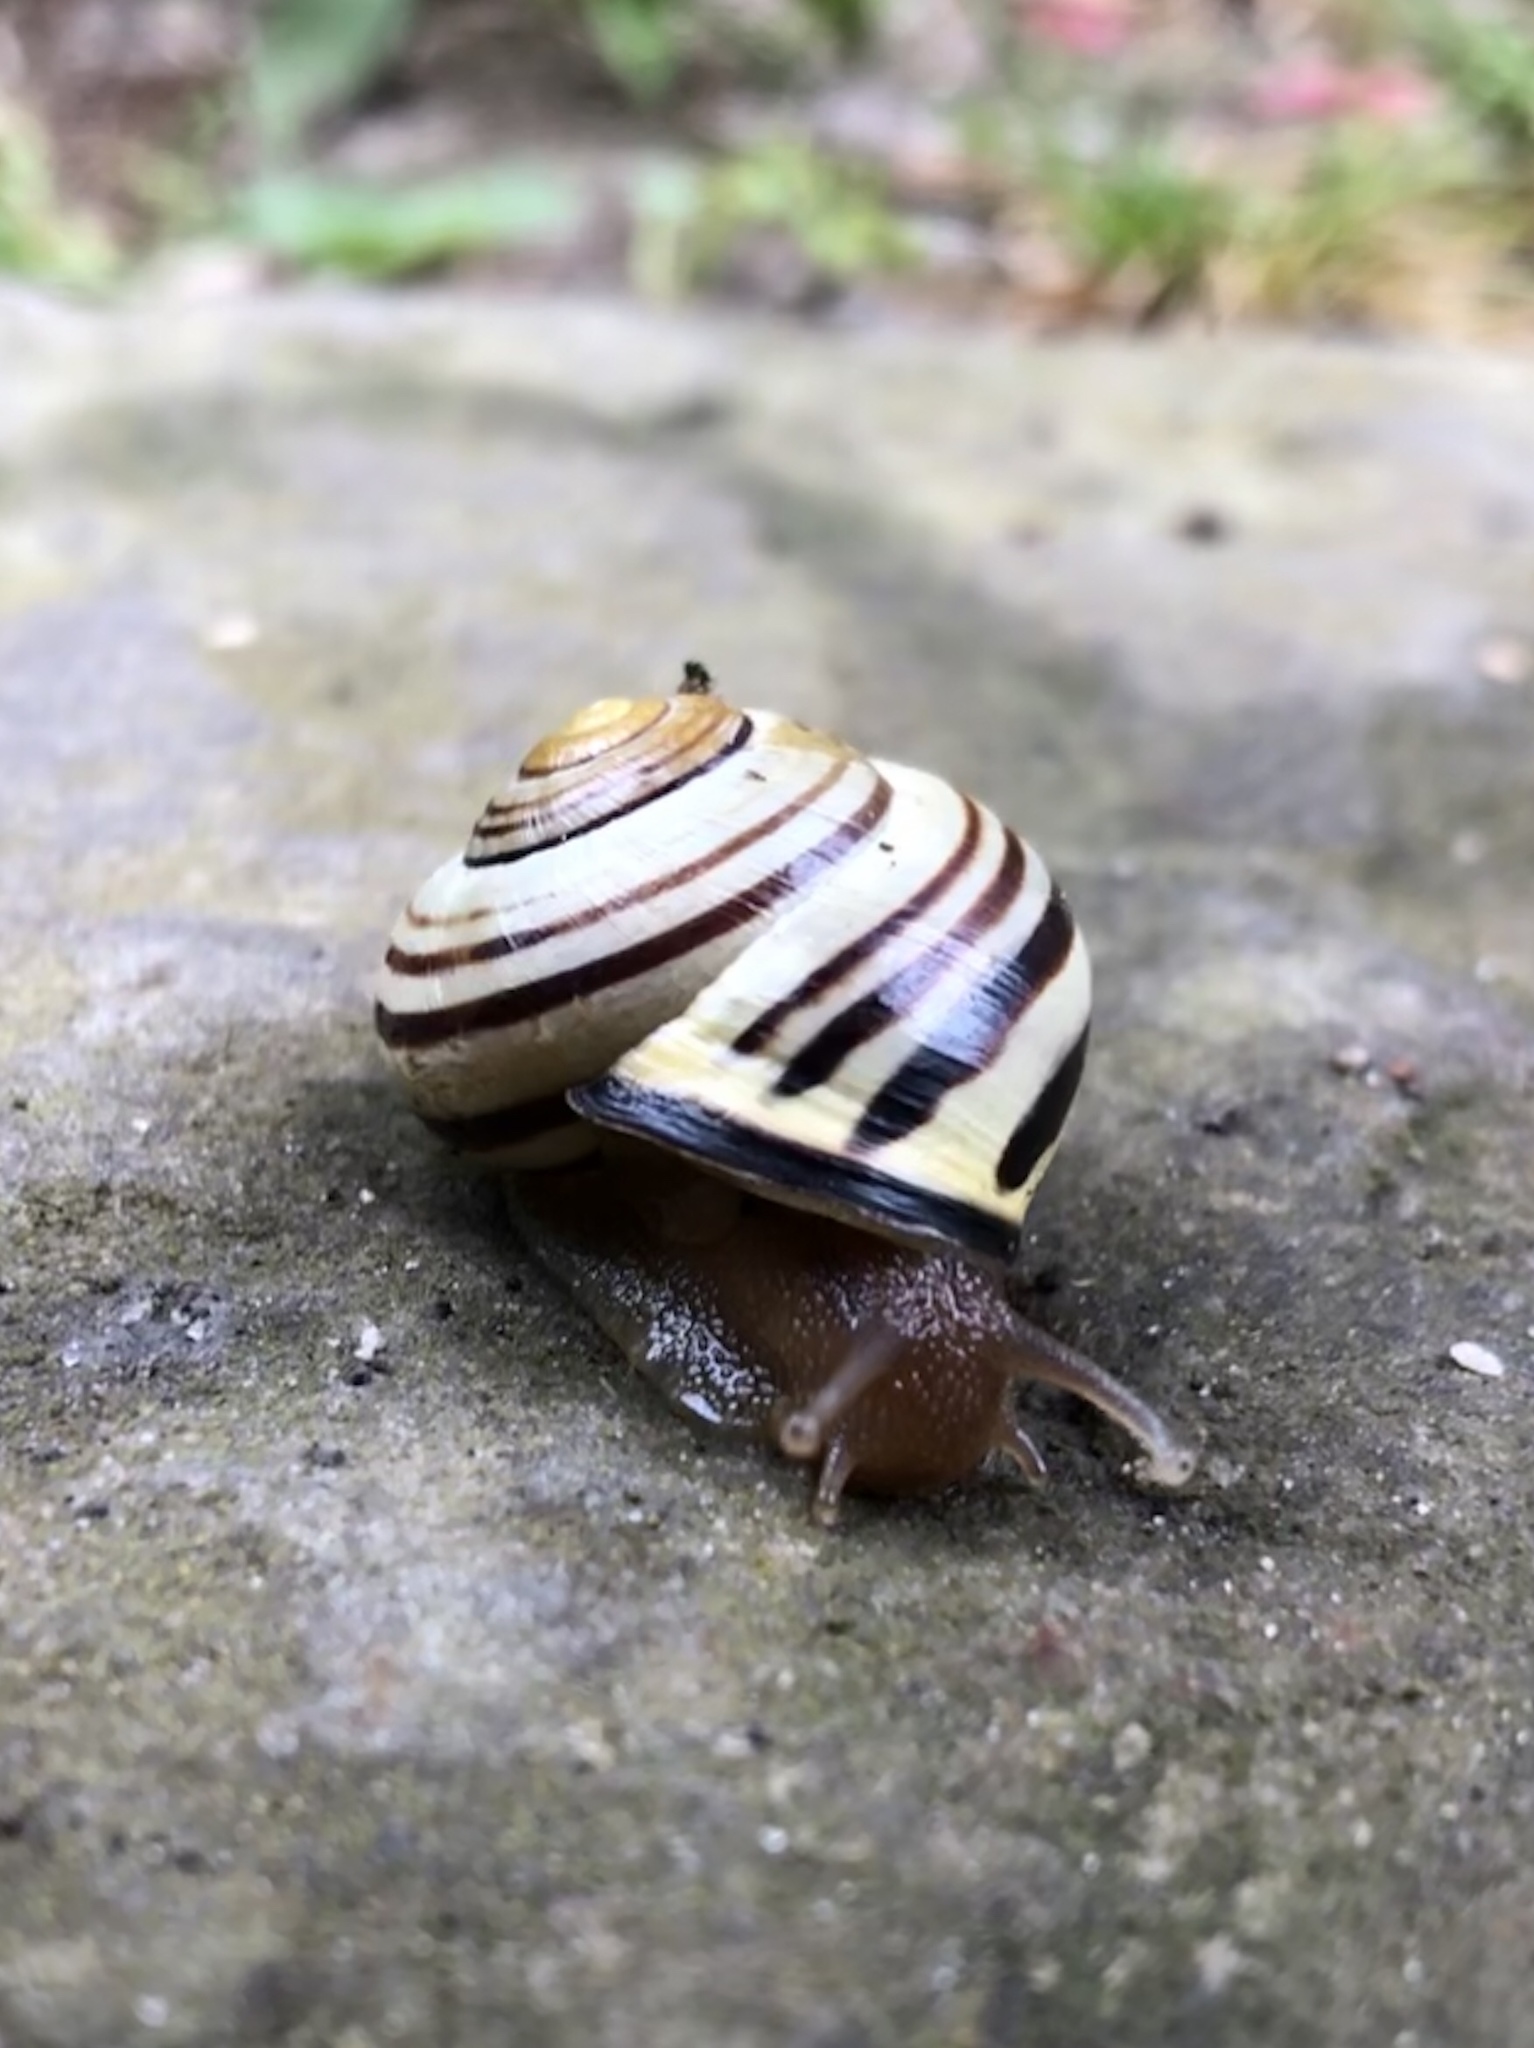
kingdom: Animalia
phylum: Mollusca
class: Gastropoda
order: Stylommatophora
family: Helicidae
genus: Cepaea
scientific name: Cepaea nemoralis
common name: Grovesnail
